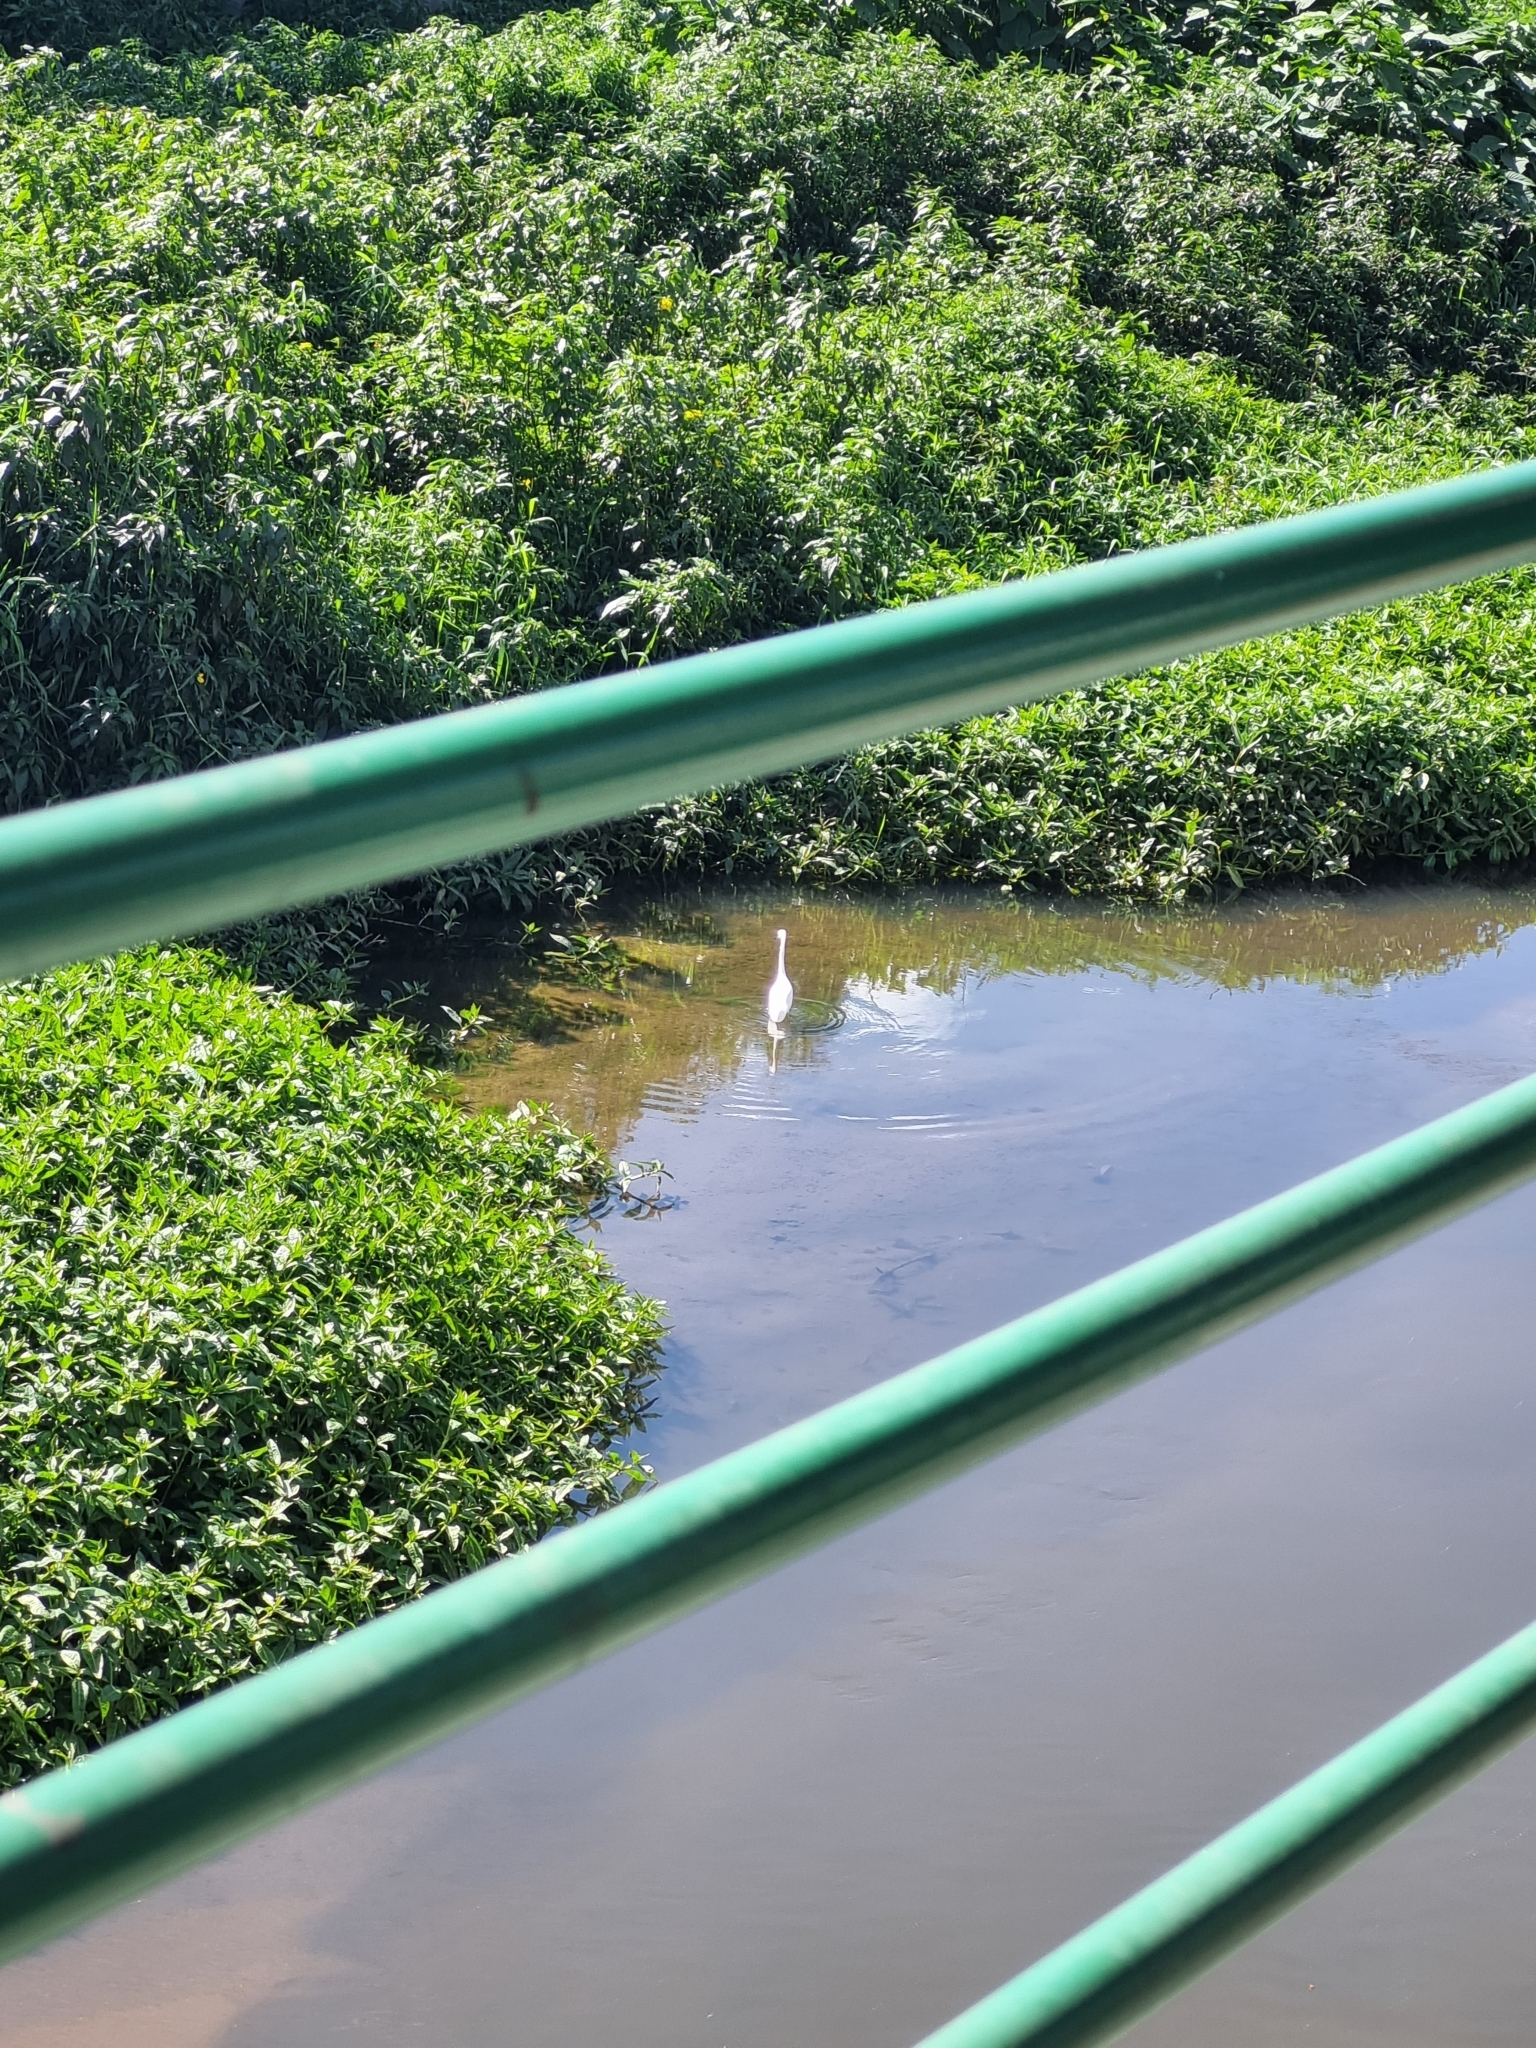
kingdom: Animalia
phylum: Chordata
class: Aves
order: Pelecaniformes
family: Ardeidae
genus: Egretta
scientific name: Egretta thula
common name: Snowy egret
